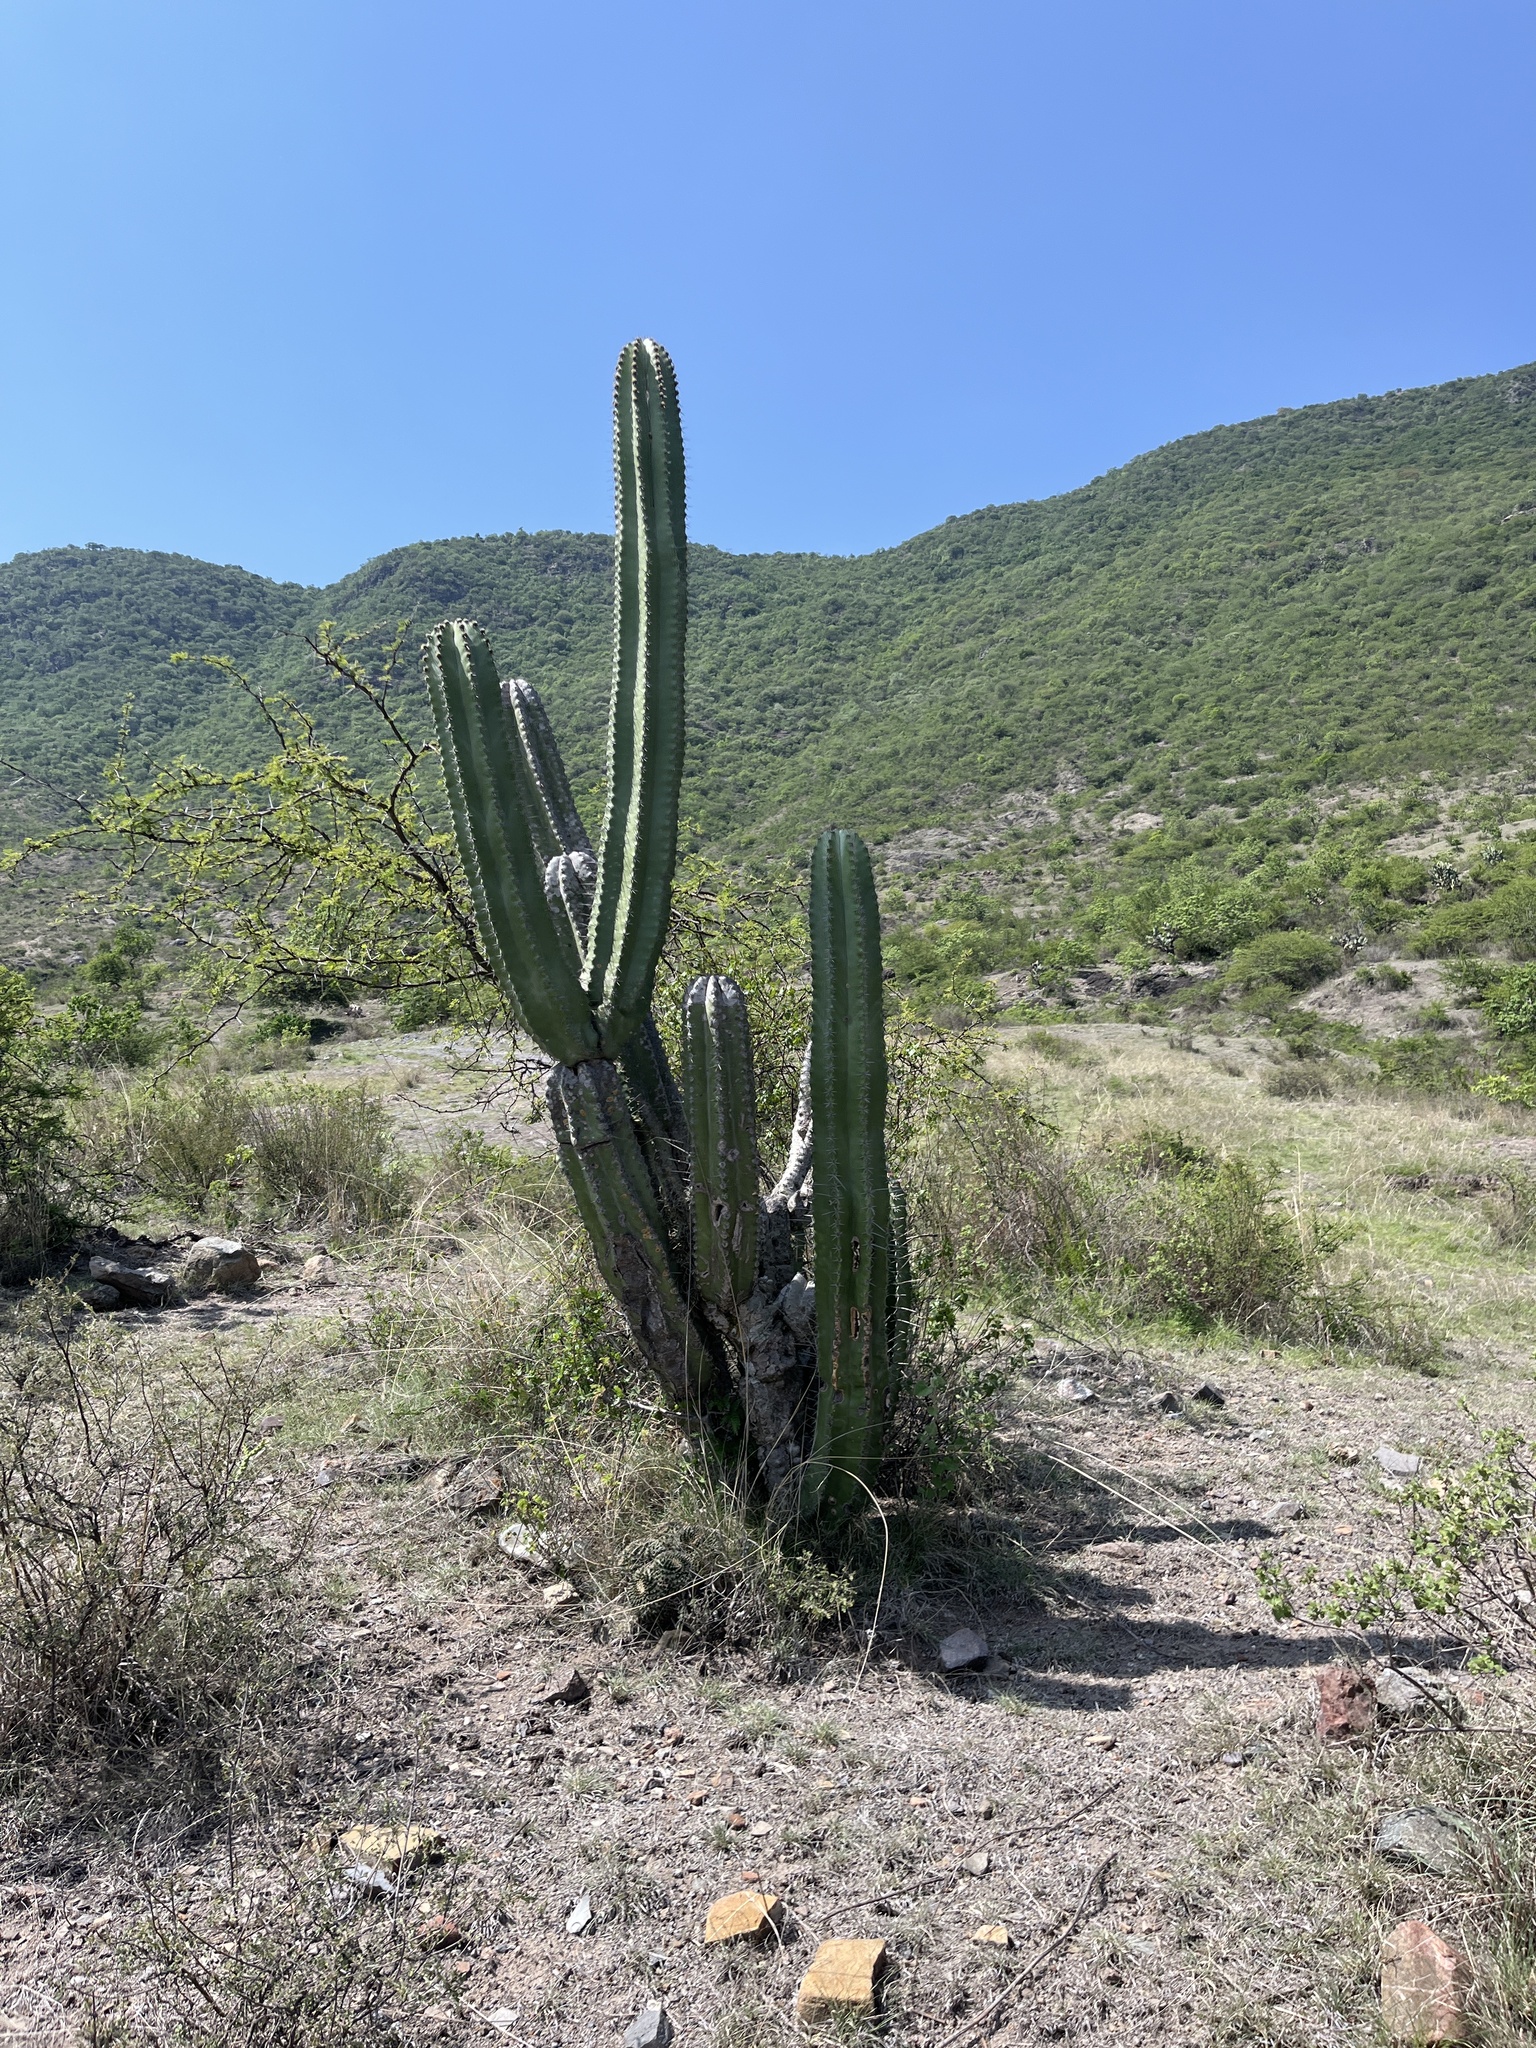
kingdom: Plantae
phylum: Tracheophyta
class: Magnoliopsida
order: Caryophyllales
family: Cactaceae
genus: Stenocereus
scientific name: Stenocereus pruinosus
